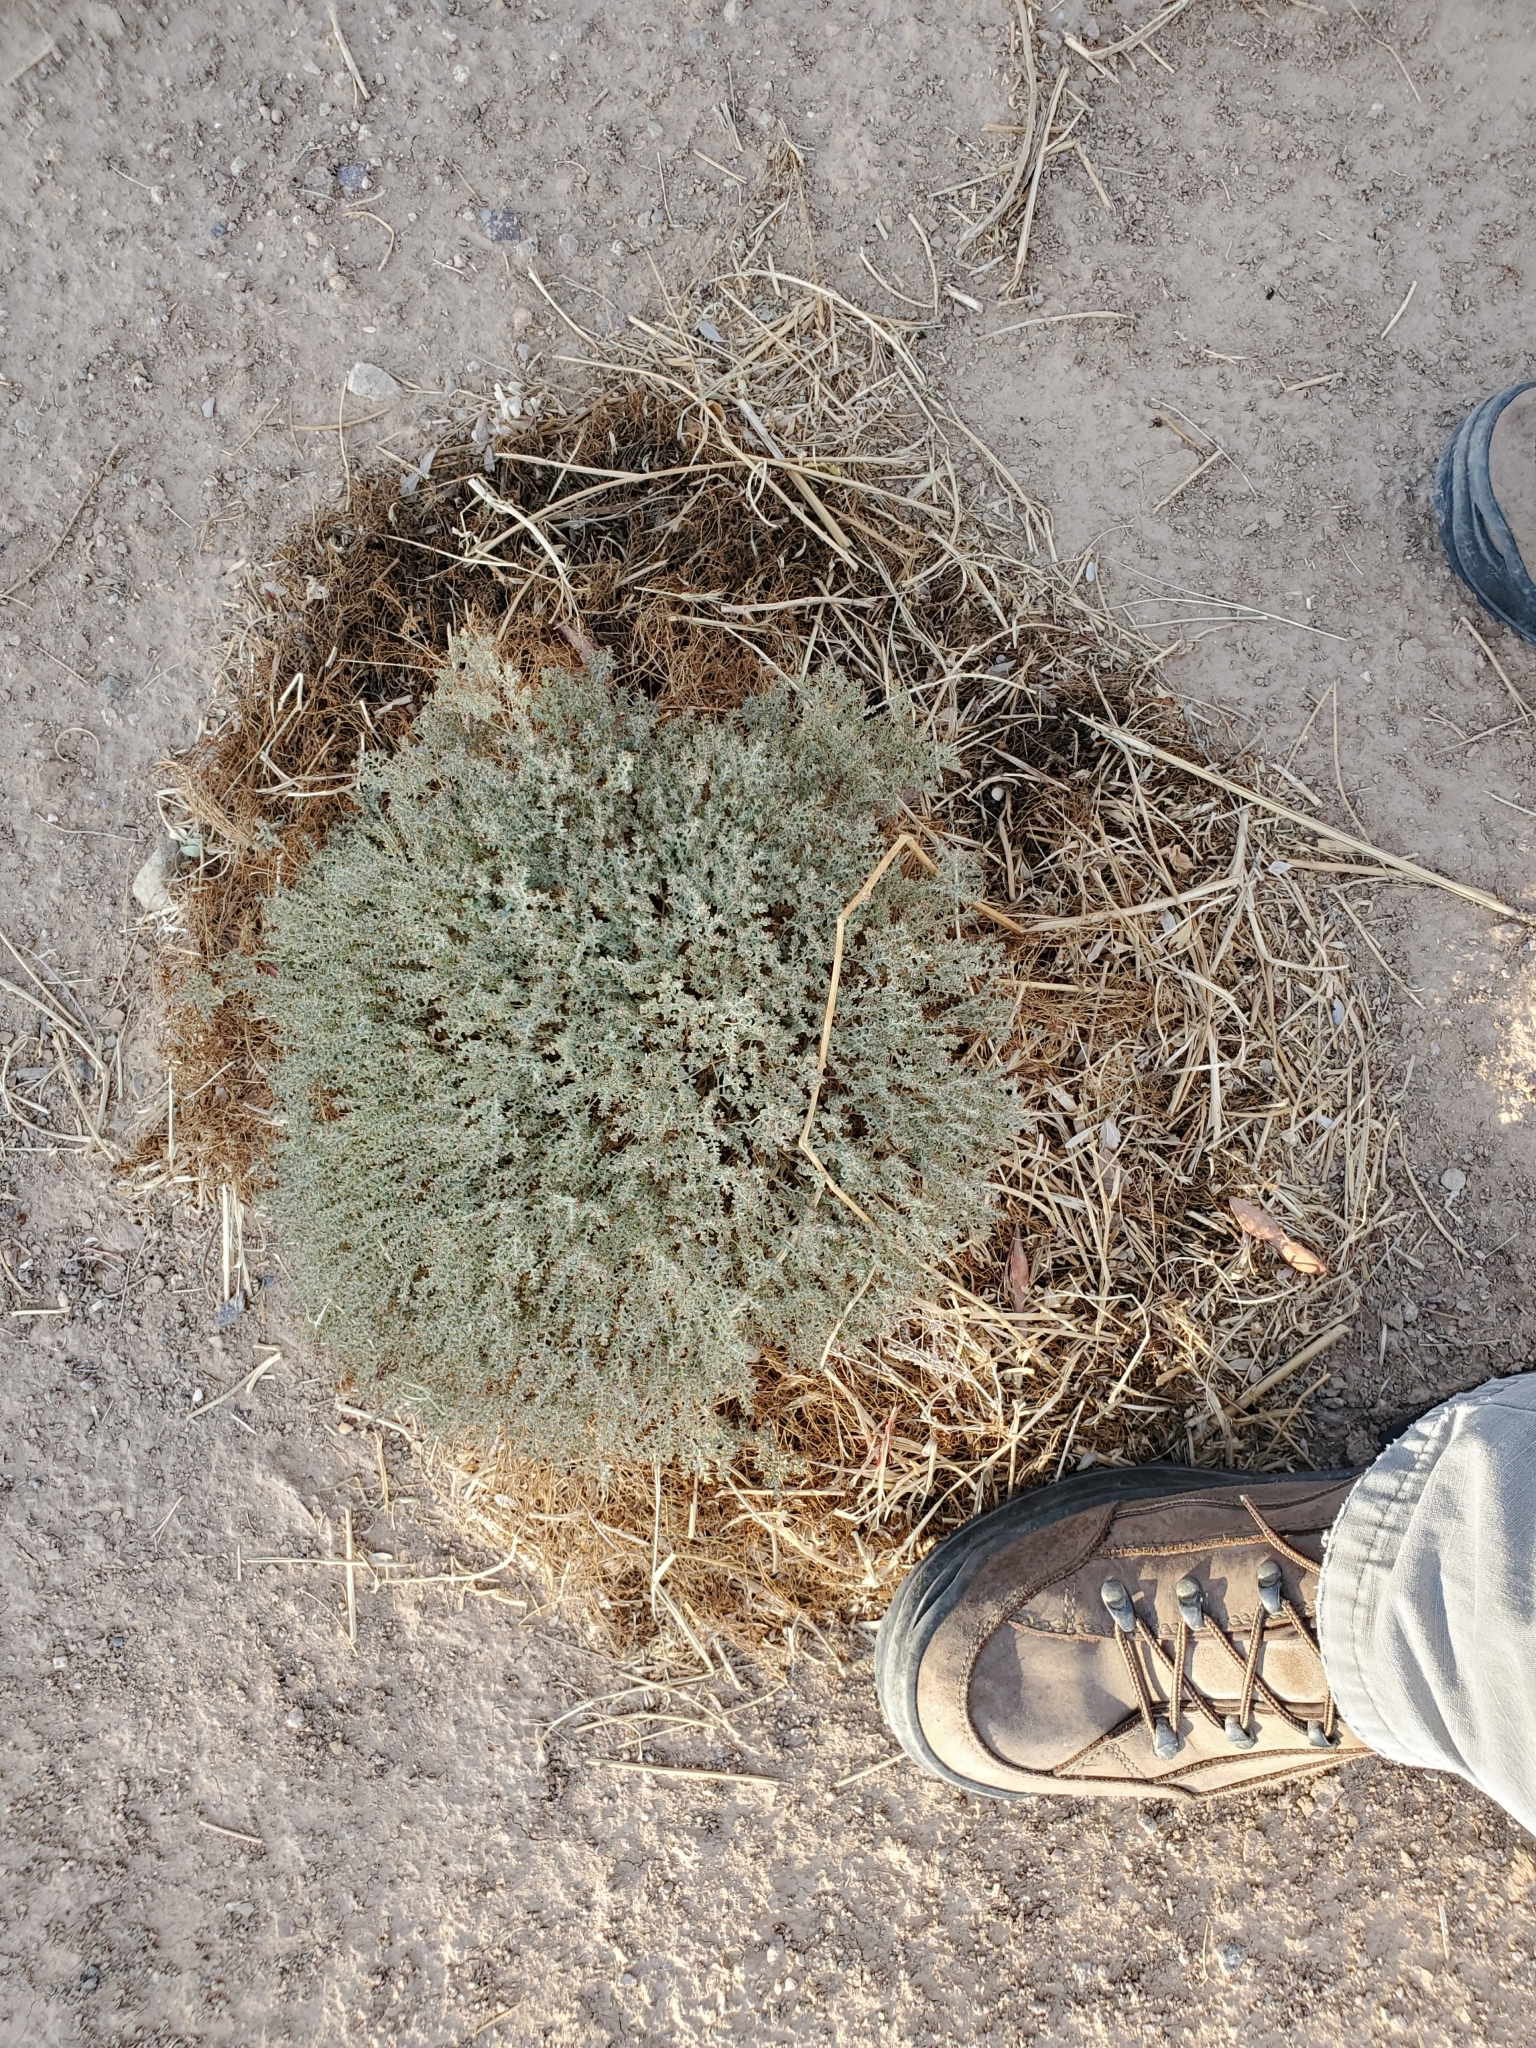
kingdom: Plantae
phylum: Tracheophyta
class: Magnoliopsida
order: Malpighiales
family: Euphorbiaceae
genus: Euphorbia
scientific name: Euphorbia polycarpa
